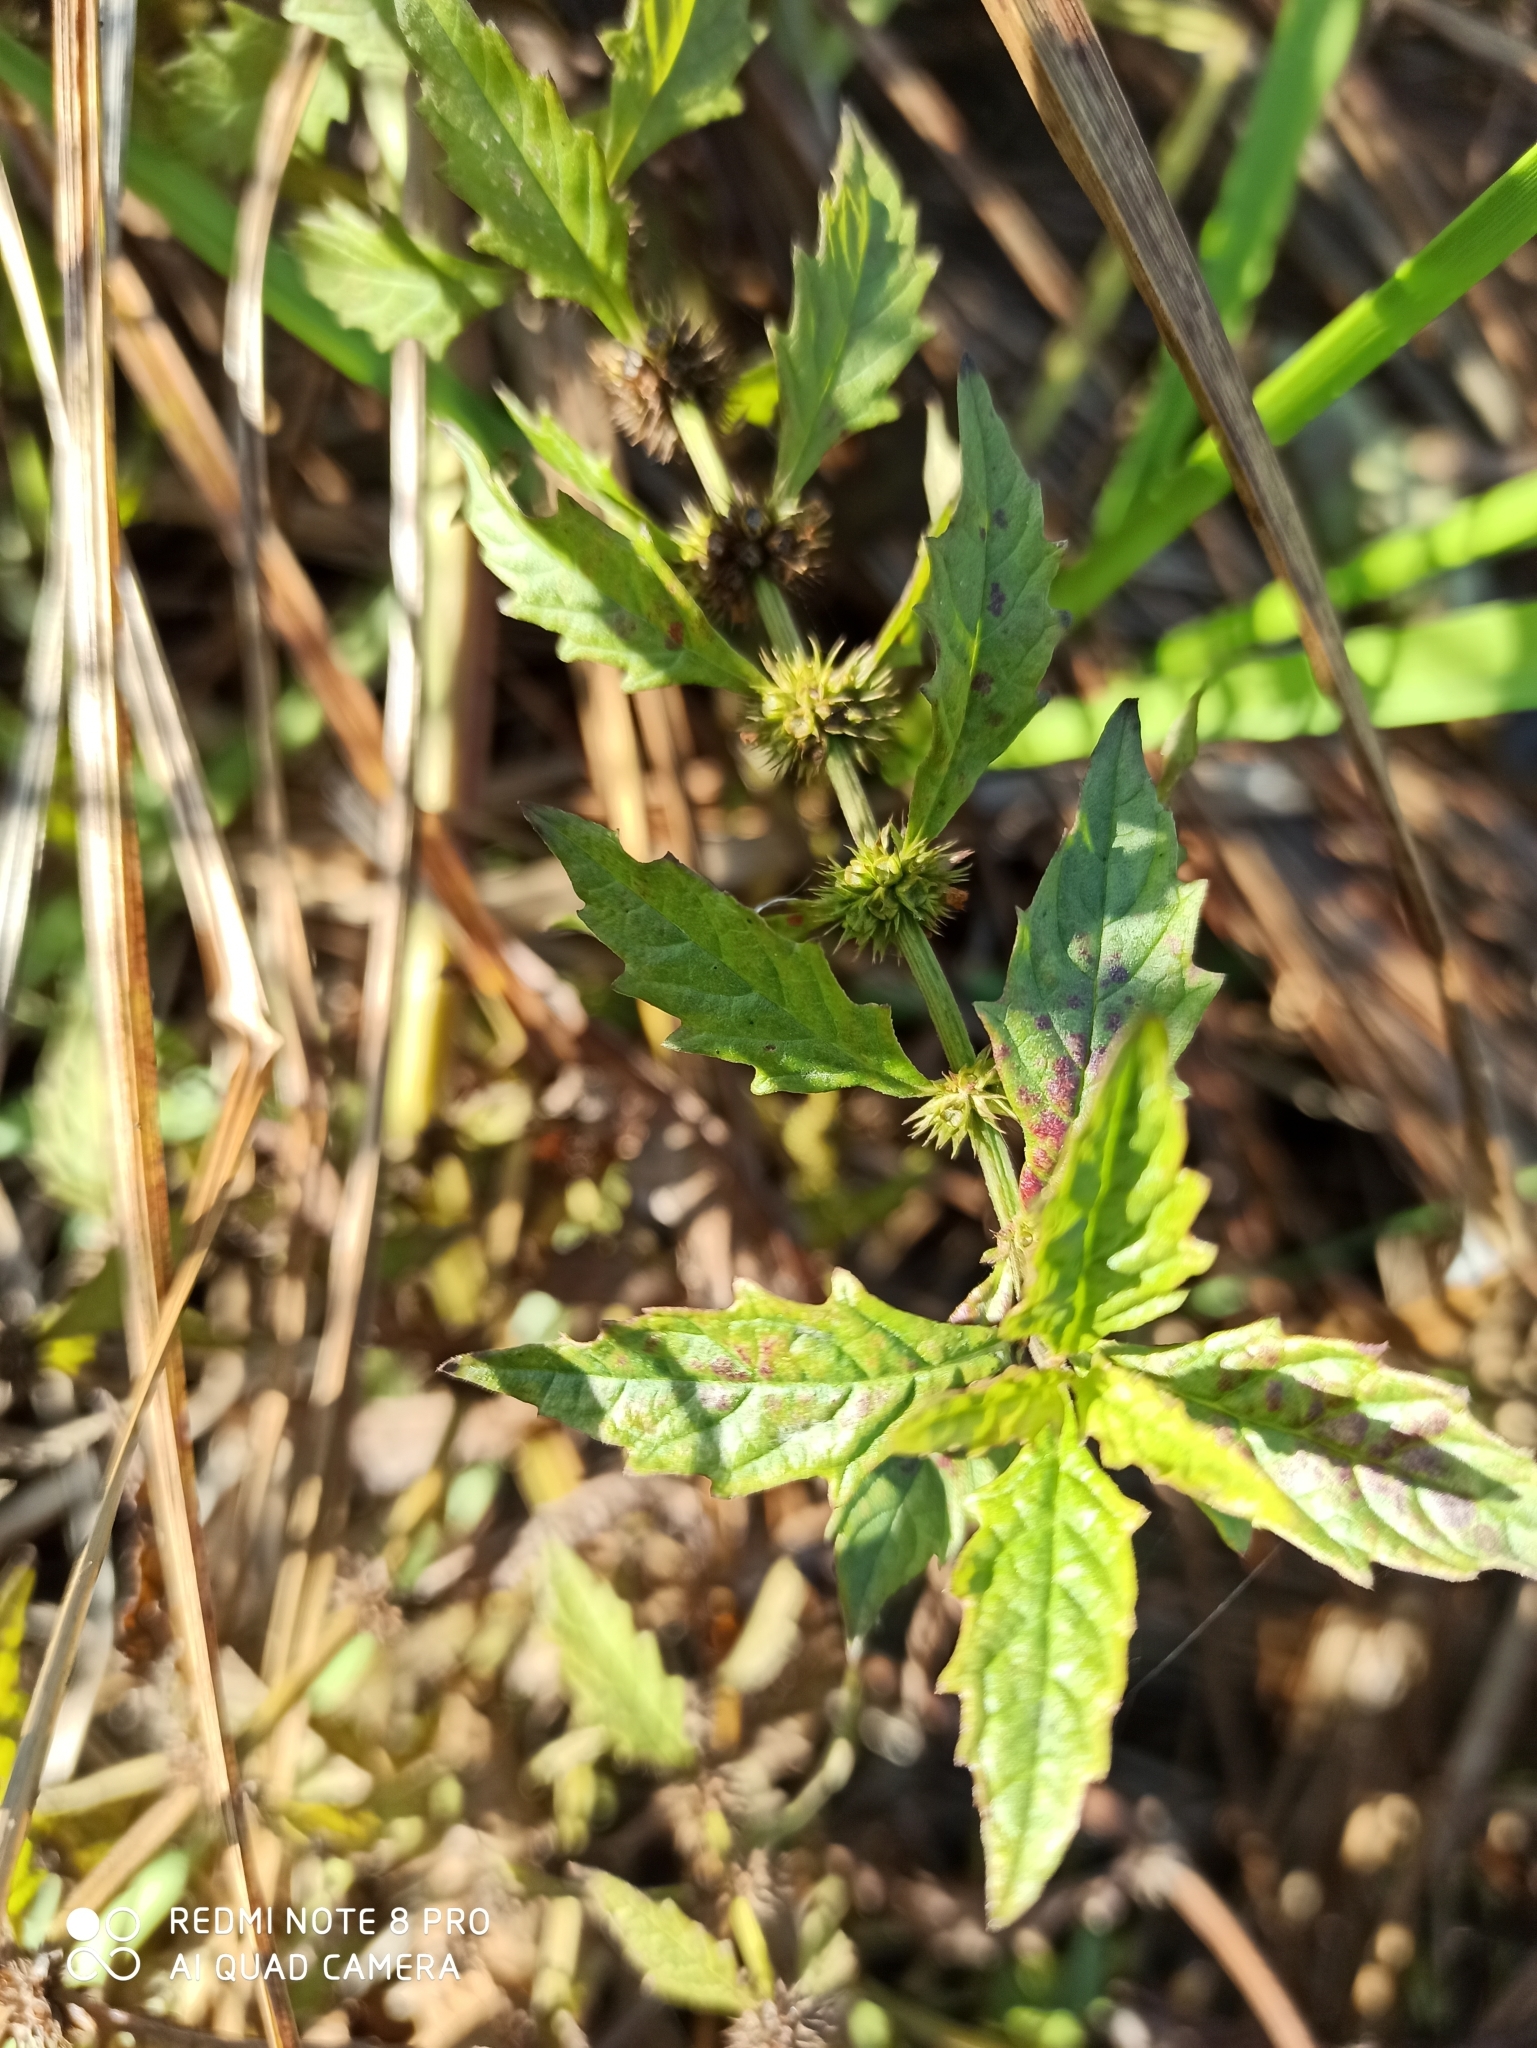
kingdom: Plantae
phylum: Tracheophyta
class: Magnoliopsida
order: Lamiales
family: Lamiaceae
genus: Lycopus
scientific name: Lycopus europaeus
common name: European bugleweed
